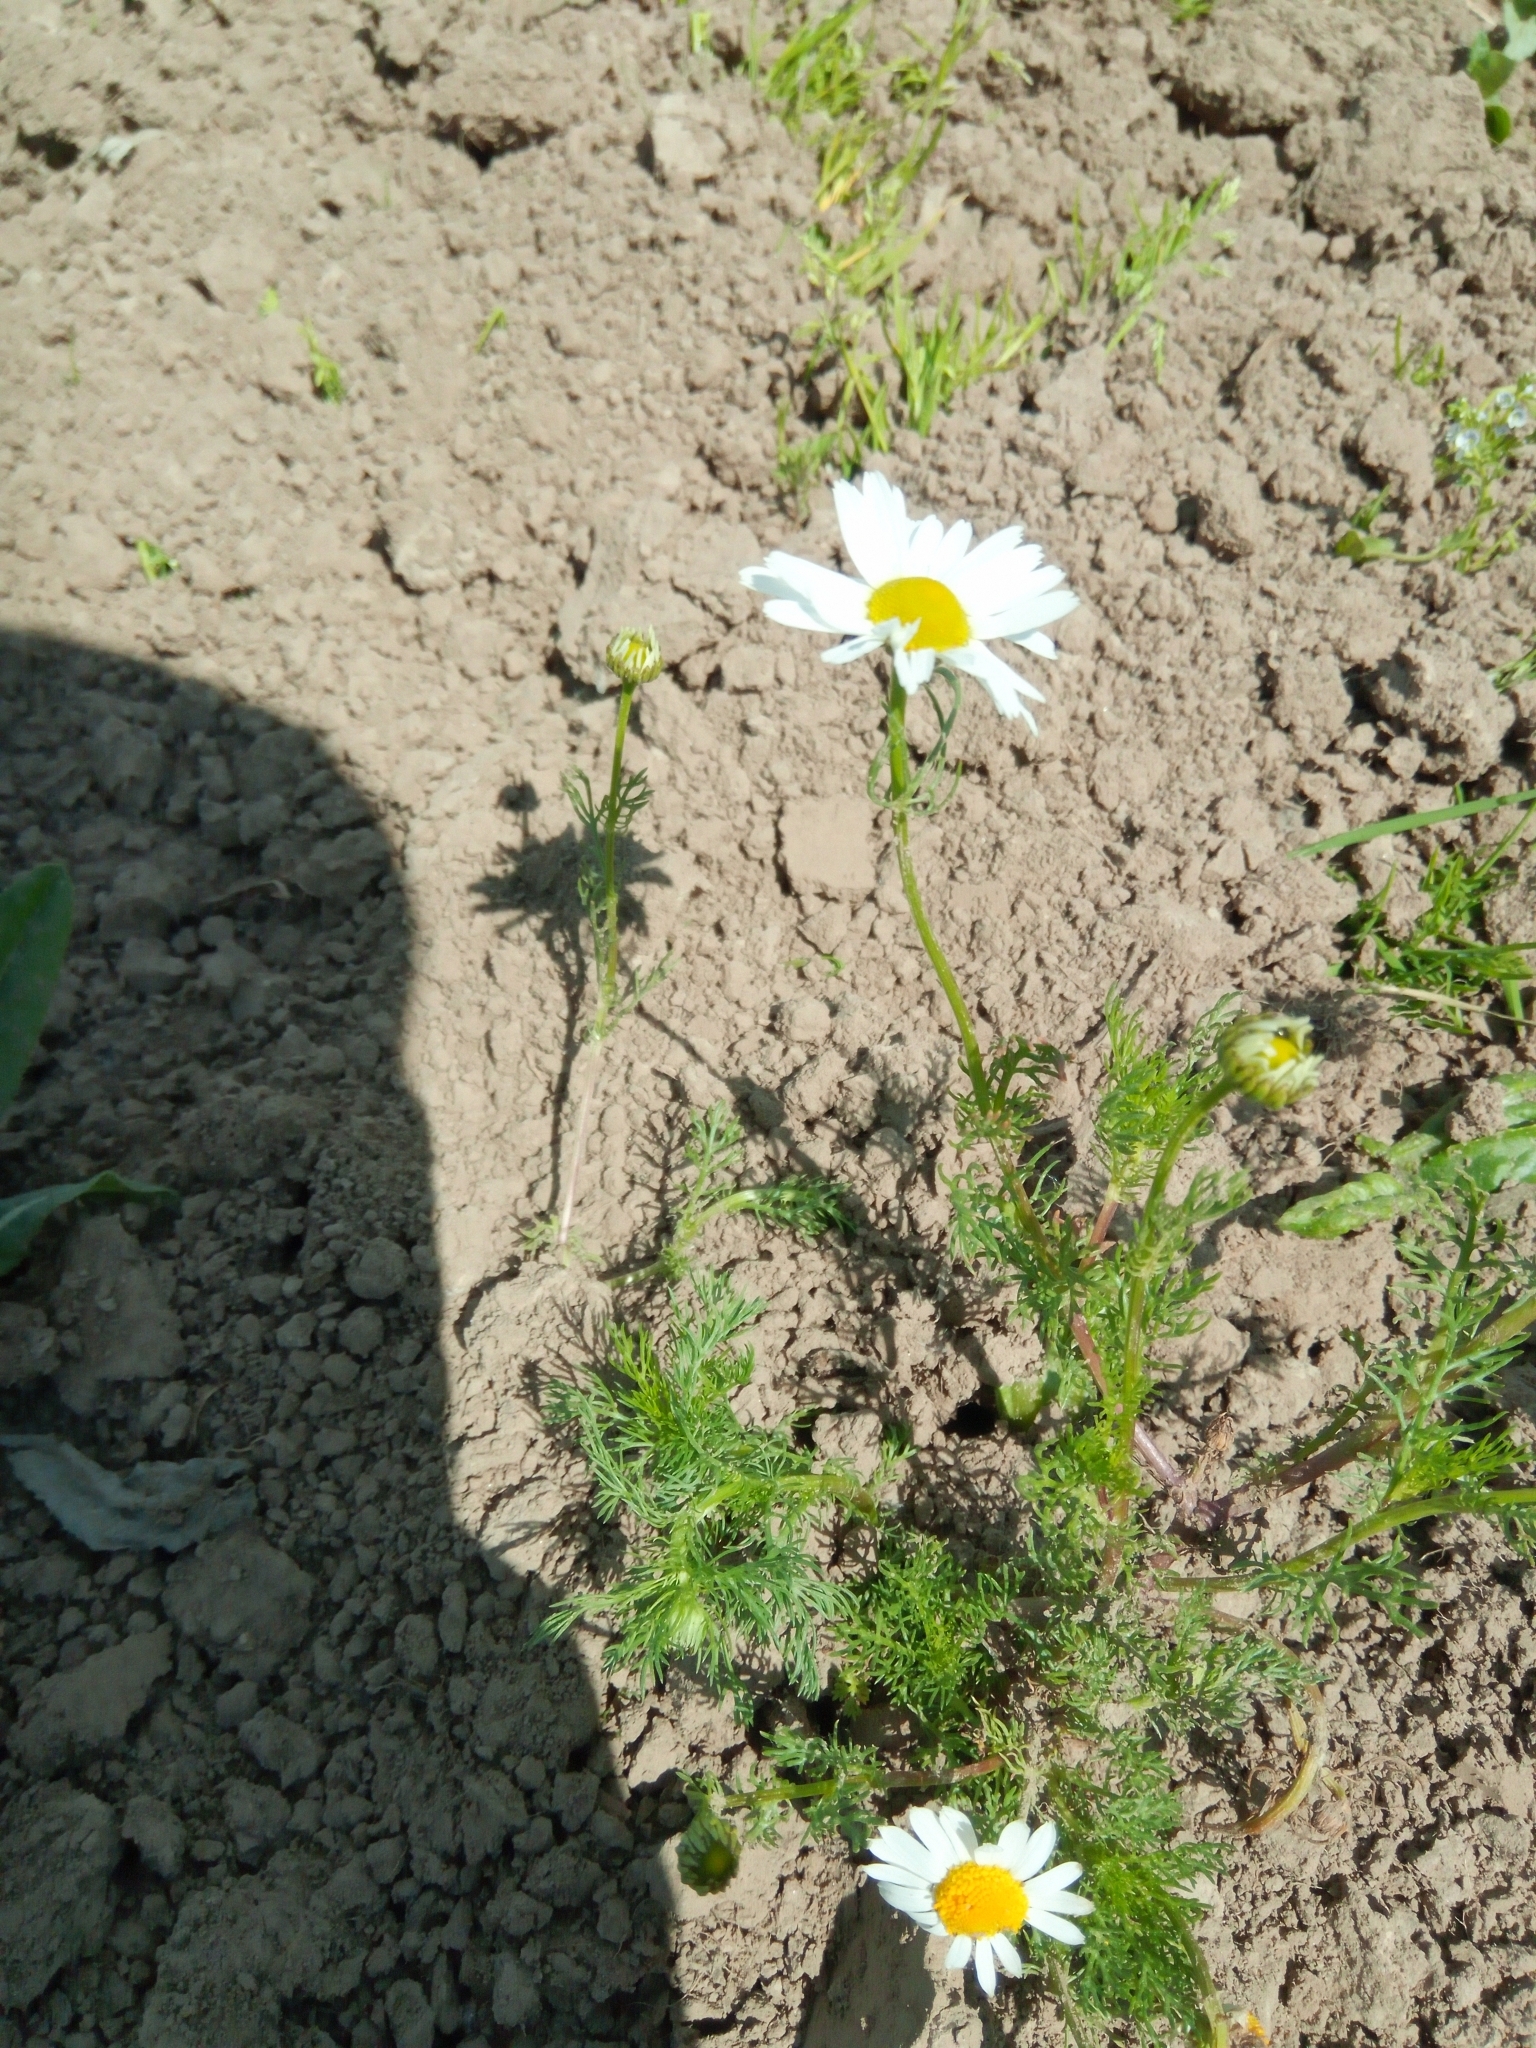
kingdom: Plantae
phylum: Tracheophyta
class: Magnoliopsida
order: Asterales
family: Asteraceae
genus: Tripleurospermum
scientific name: Tripleurospermum inodorum
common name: Scentless mayweed
